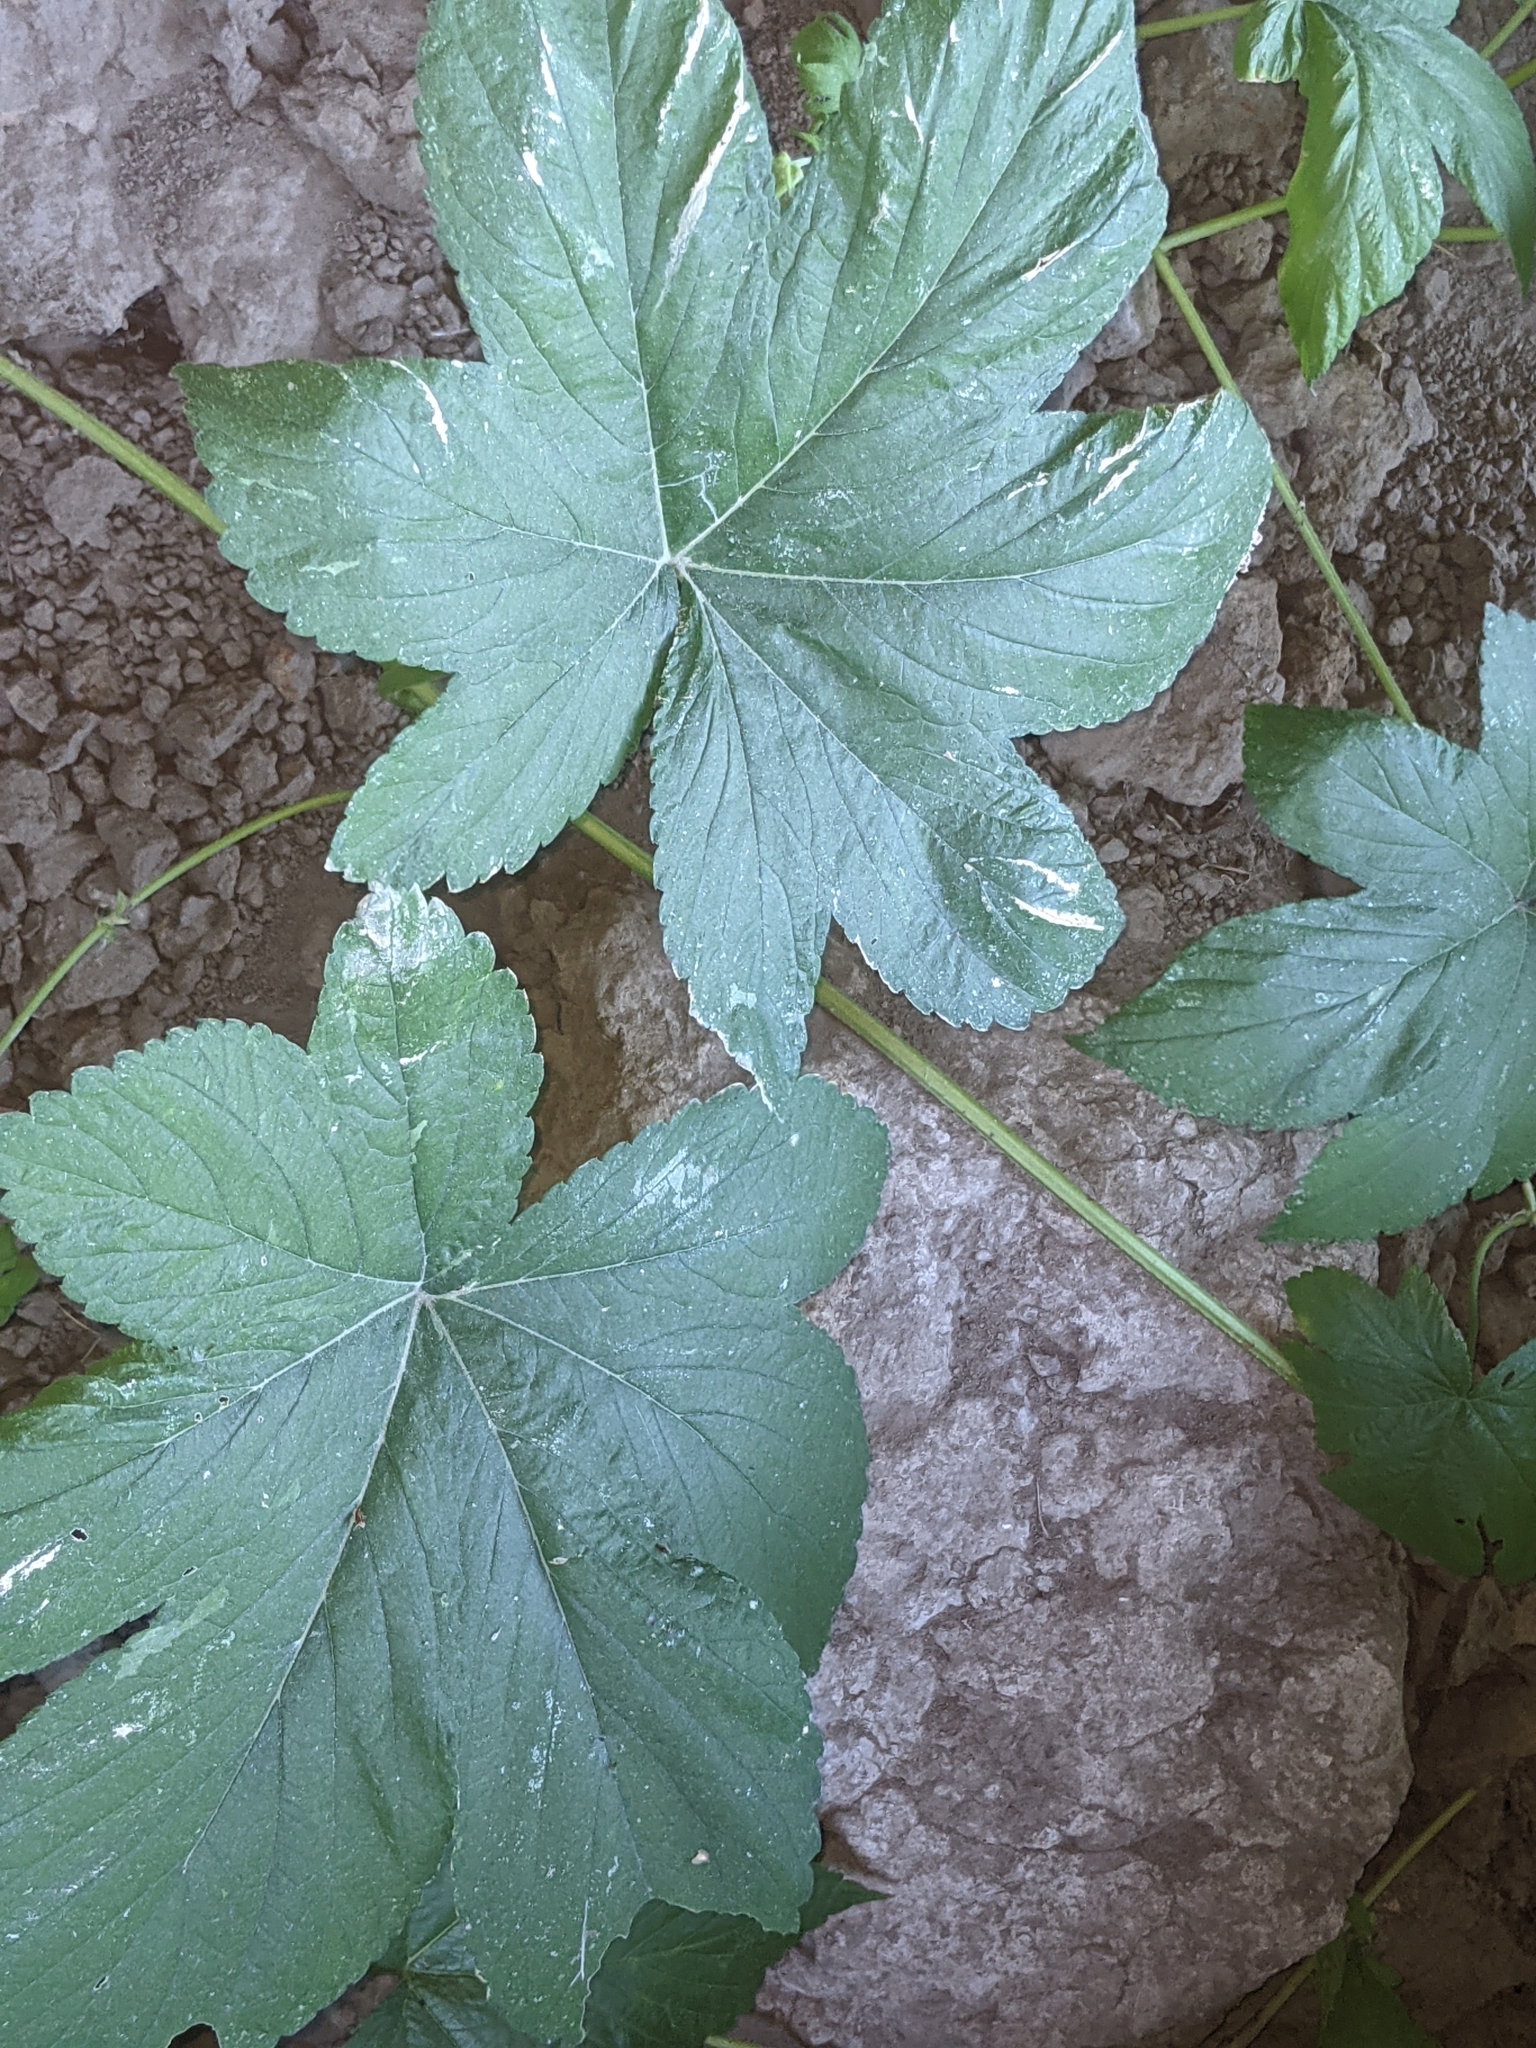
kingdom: Plantae
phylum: Tracheophyta
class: Magnoliopsida
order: Rosales
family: Cannabaceae
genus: Humulus
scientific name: Humulus scandens
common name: Japanese hop
